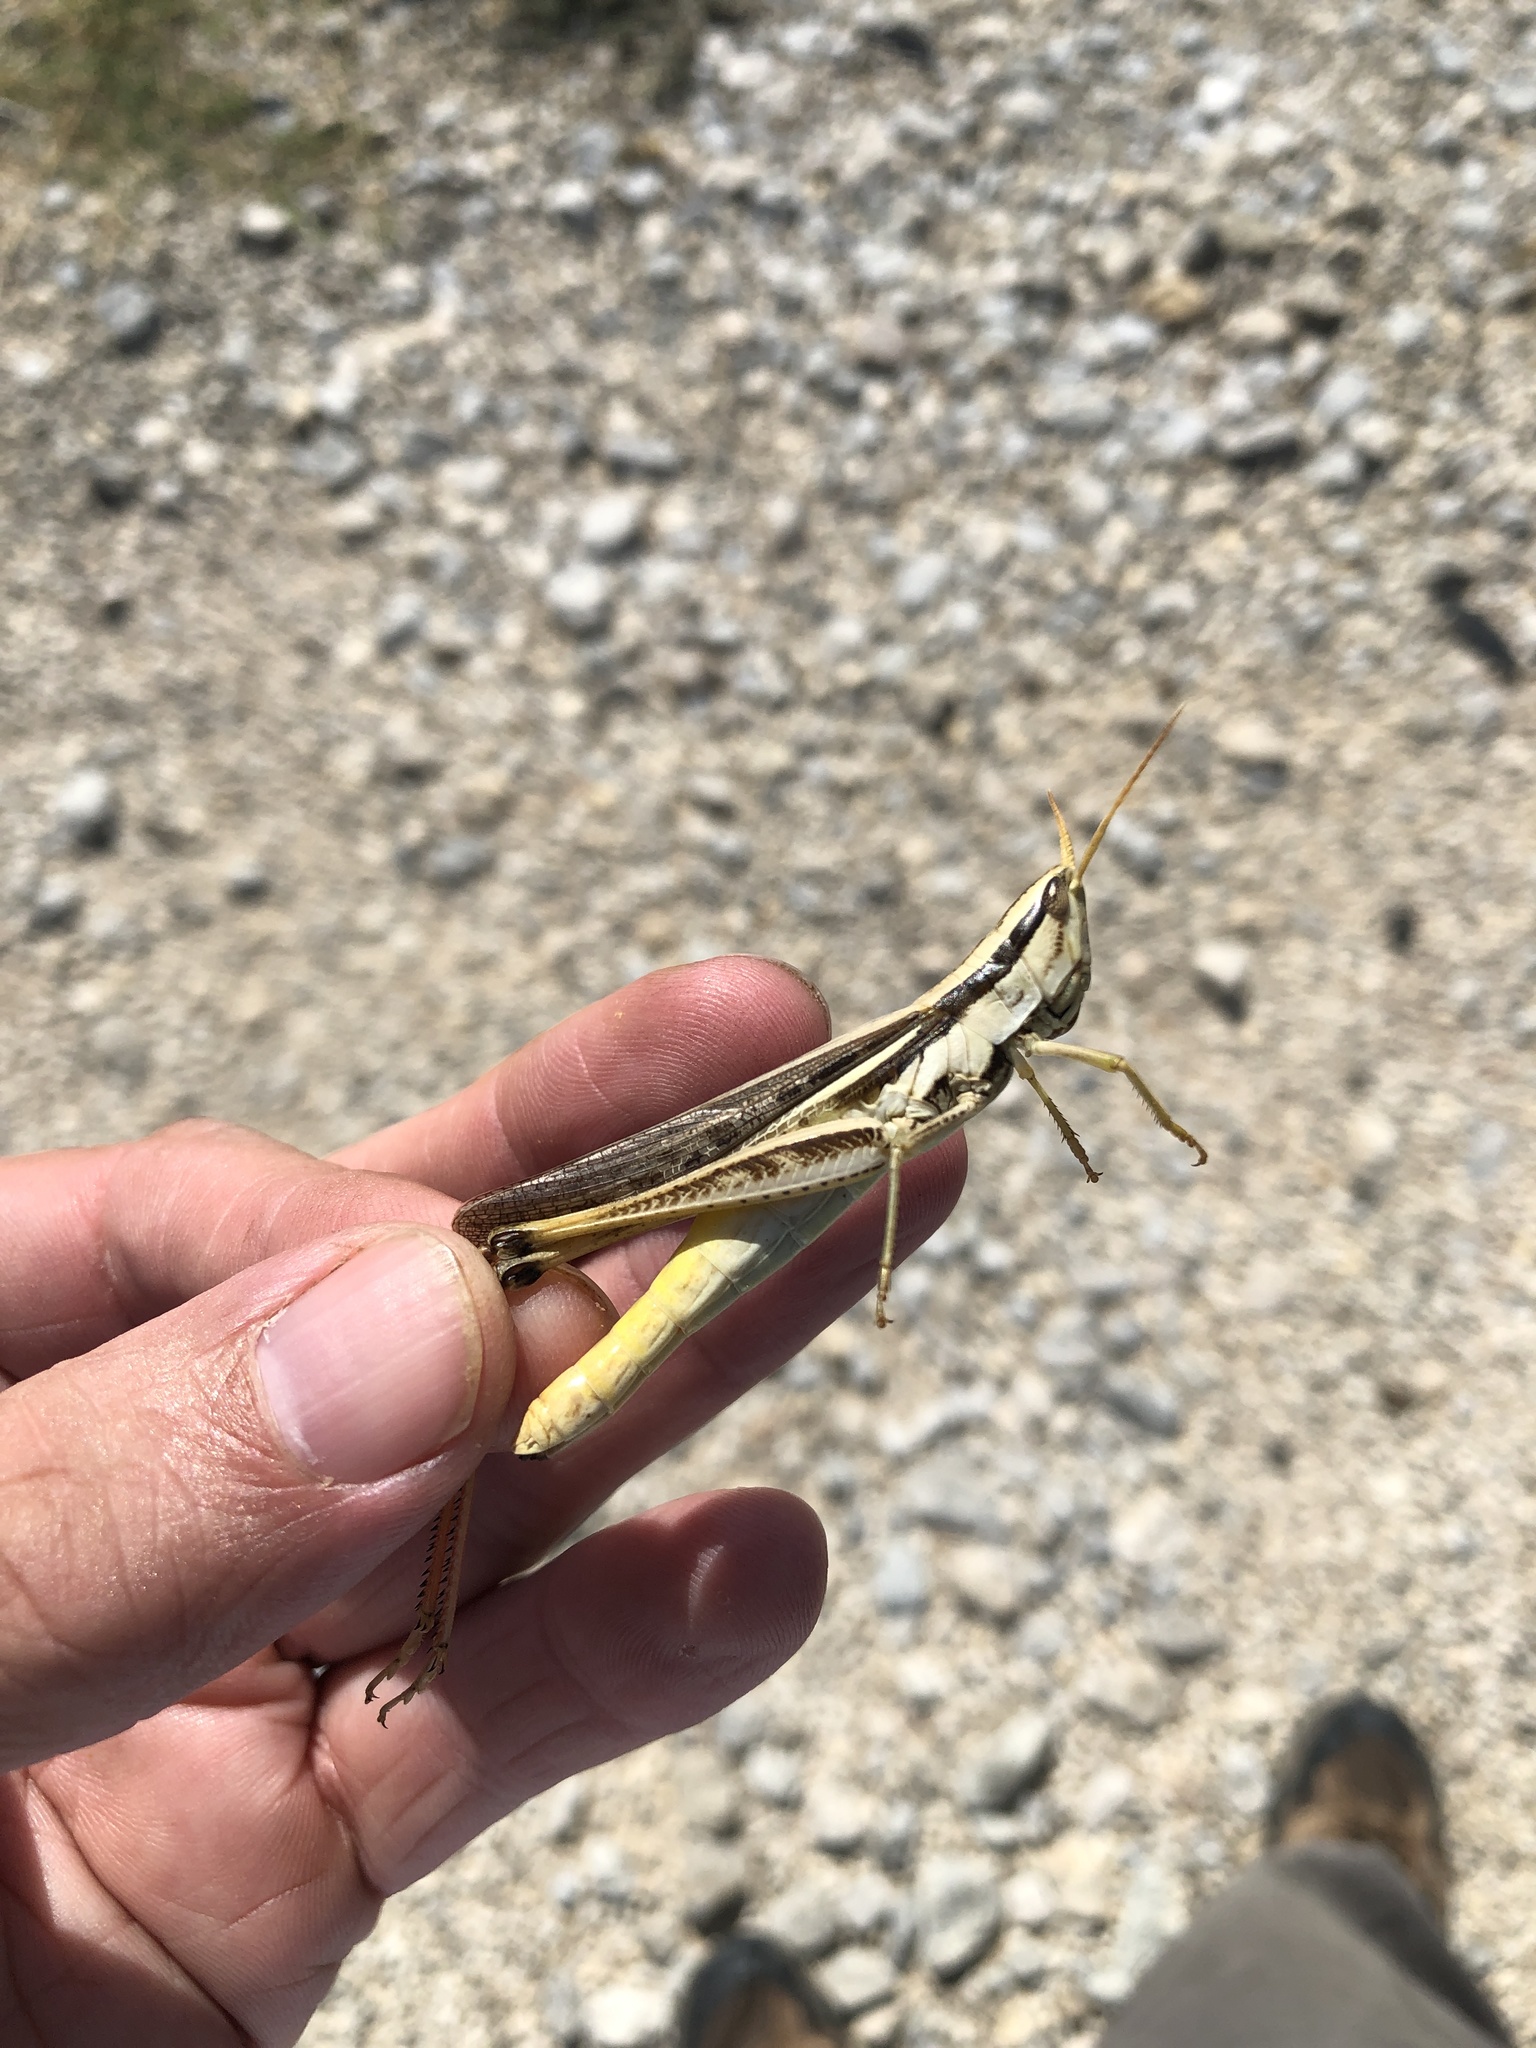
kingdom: Animalia
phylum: Arthropoda
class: Insecta
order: Orthoptera
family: Acrididae
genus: Mermiria
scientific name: Mermiria bivittata
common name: Two-striped mermiria grasshopper
